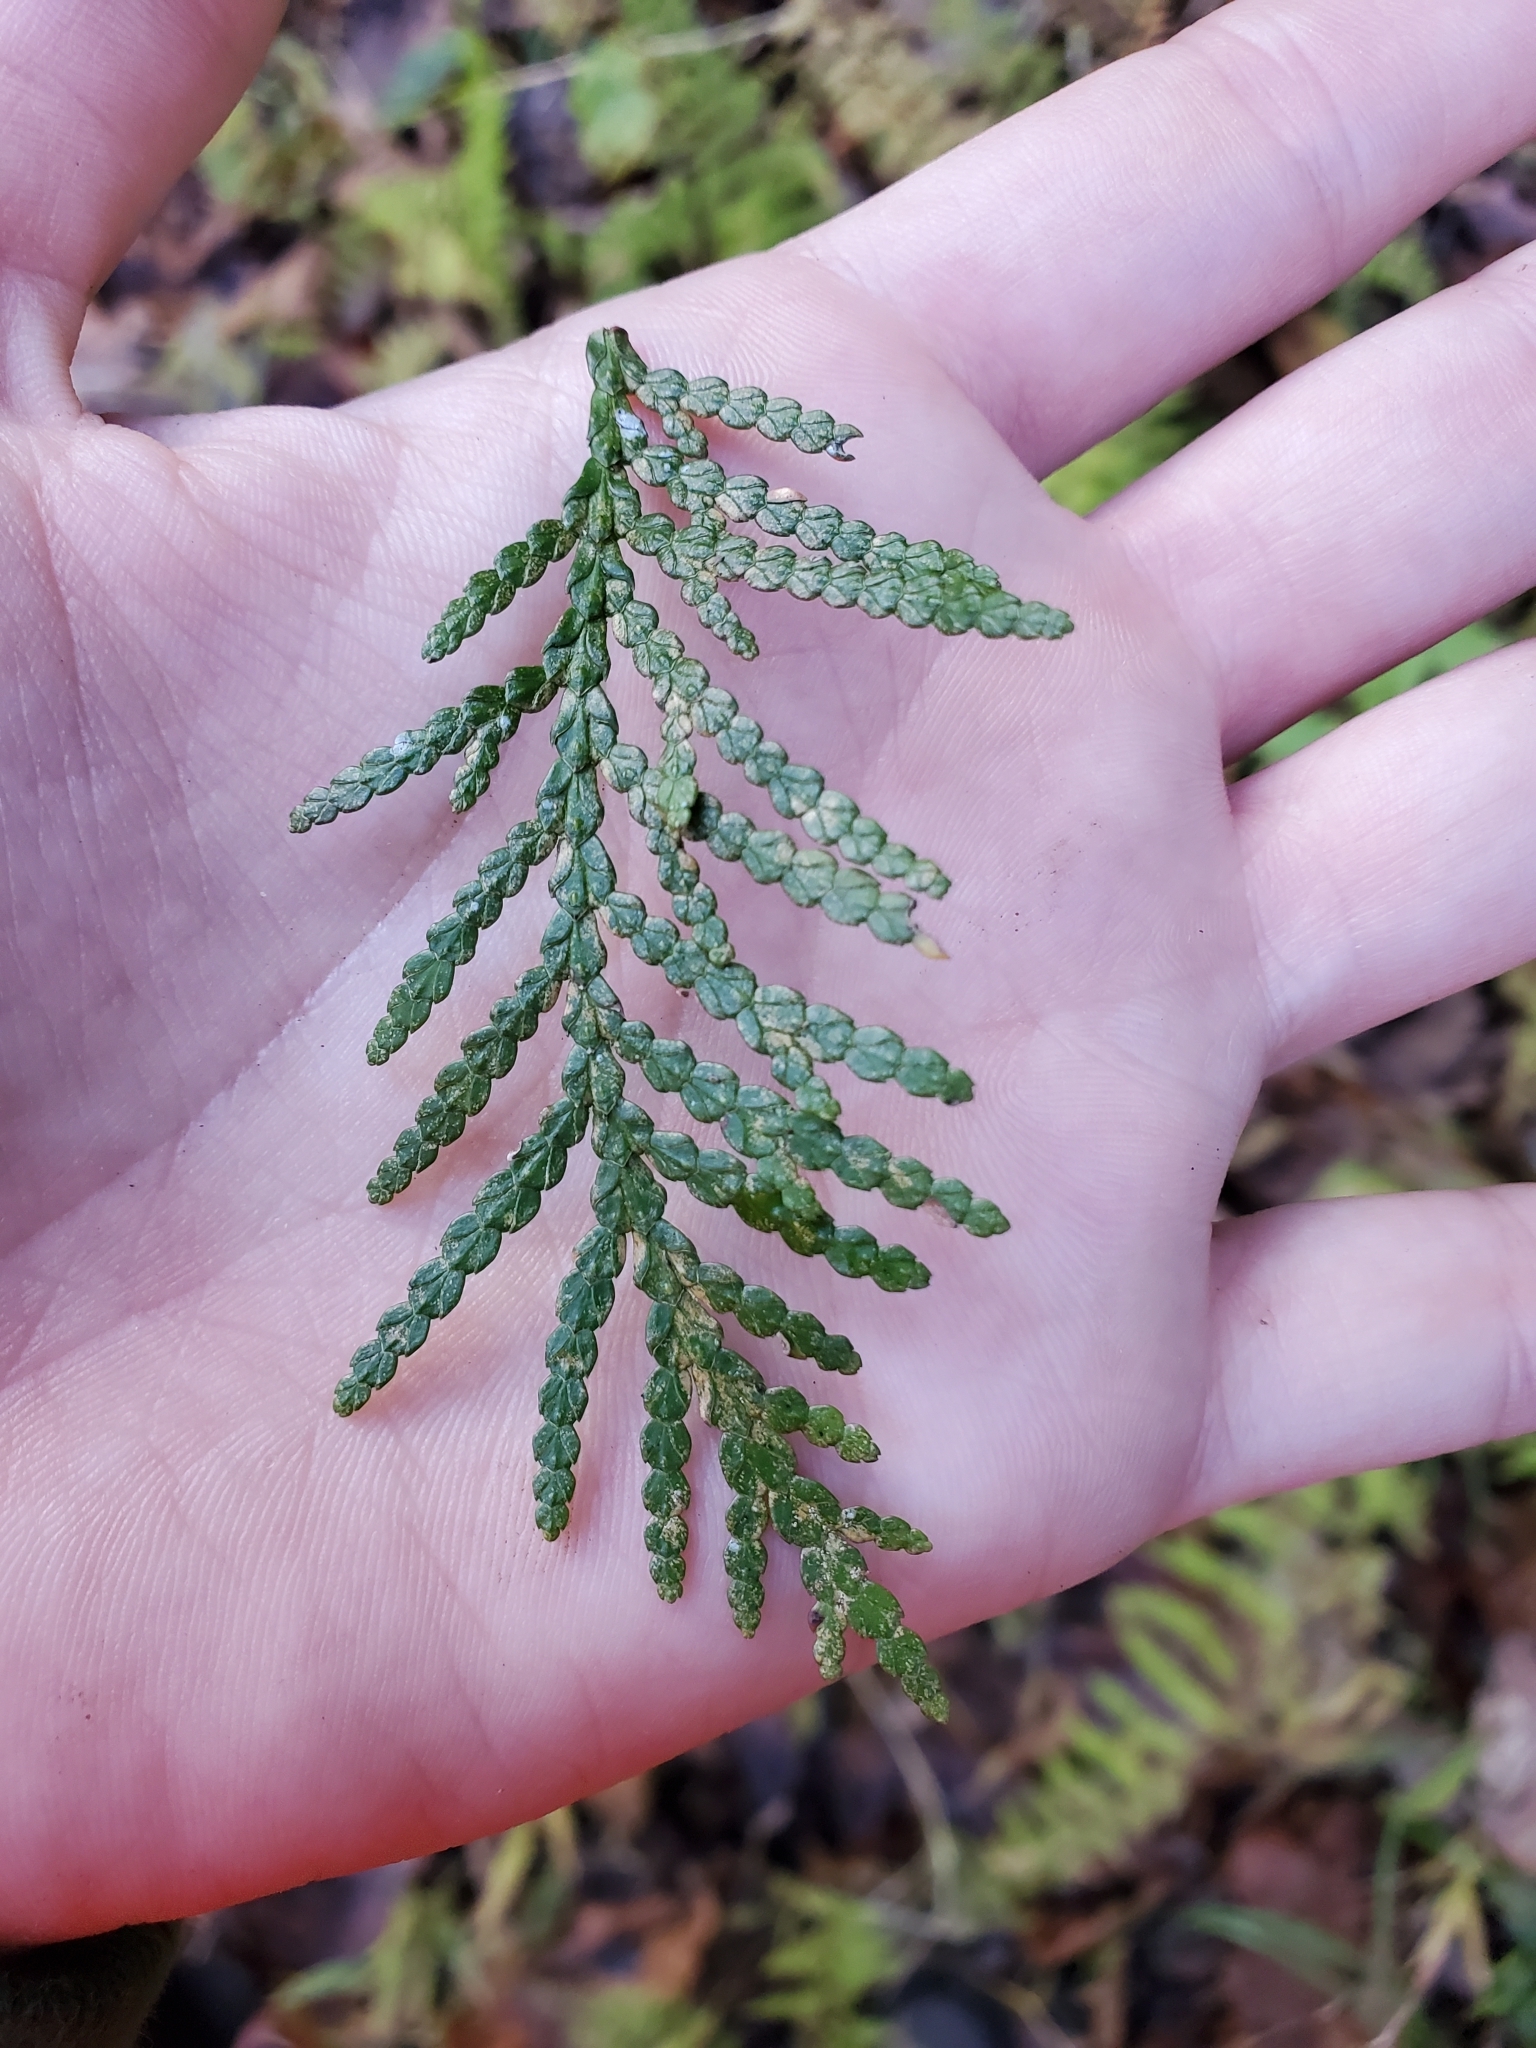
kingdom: Plantae
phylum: Tracheophyta
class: Pinopsida
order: Pinales
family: Cupressaceae
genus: Thuja
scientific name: Thuja occidentalis
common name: Northern white-cedar
